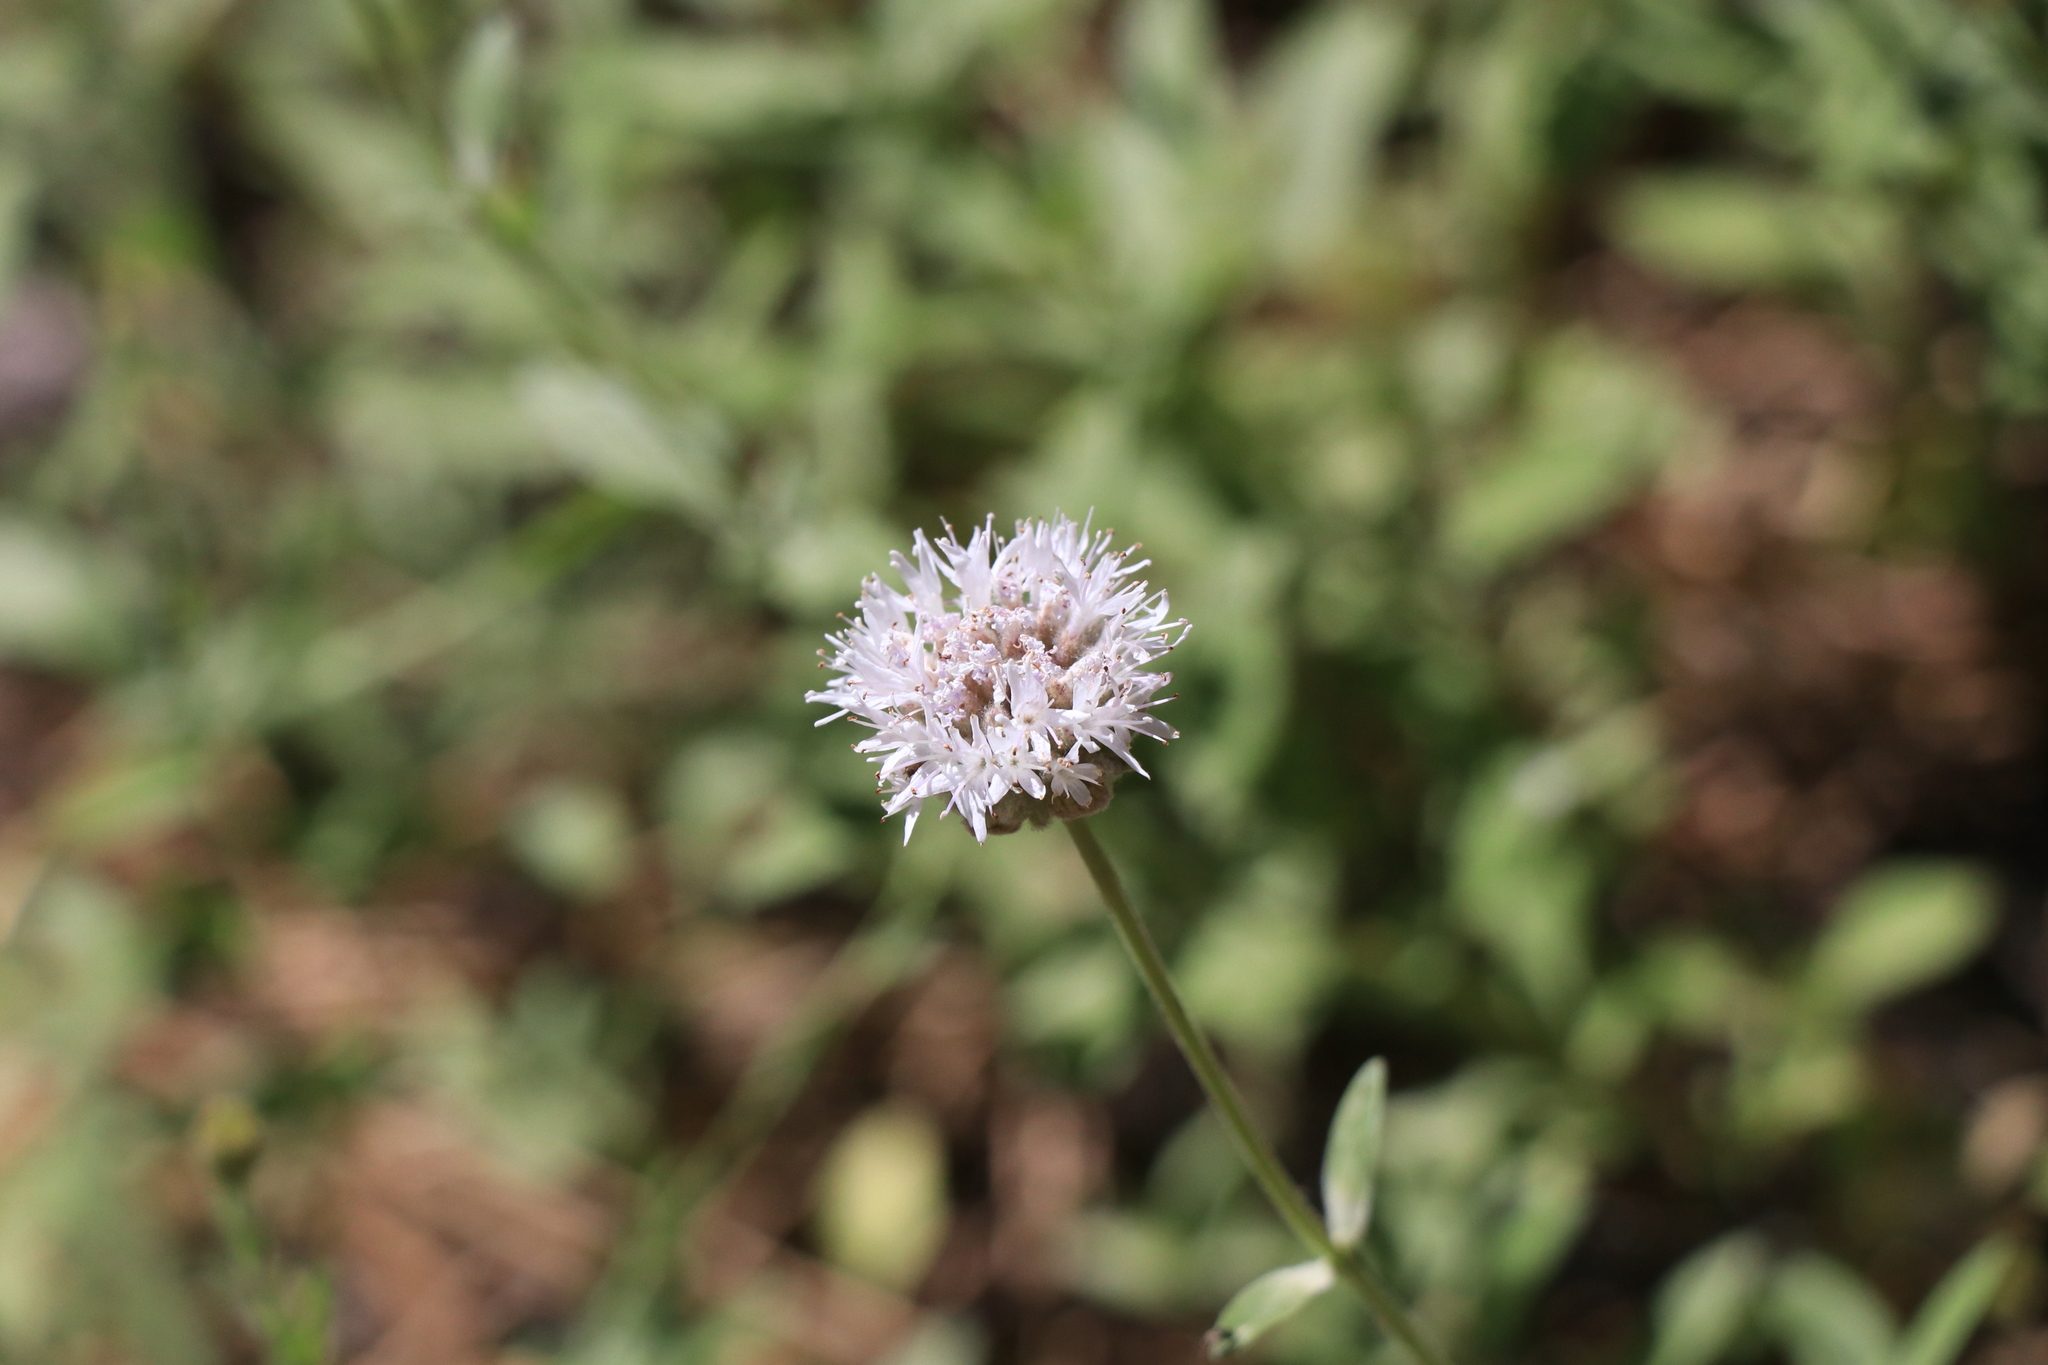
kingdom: Plantae
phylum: Tracheophyta
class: Magnoliopsida
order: Lamiales
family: Lamiaceae
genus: Monardella
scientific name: Monardella odoratissima
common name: Pacific monardella
